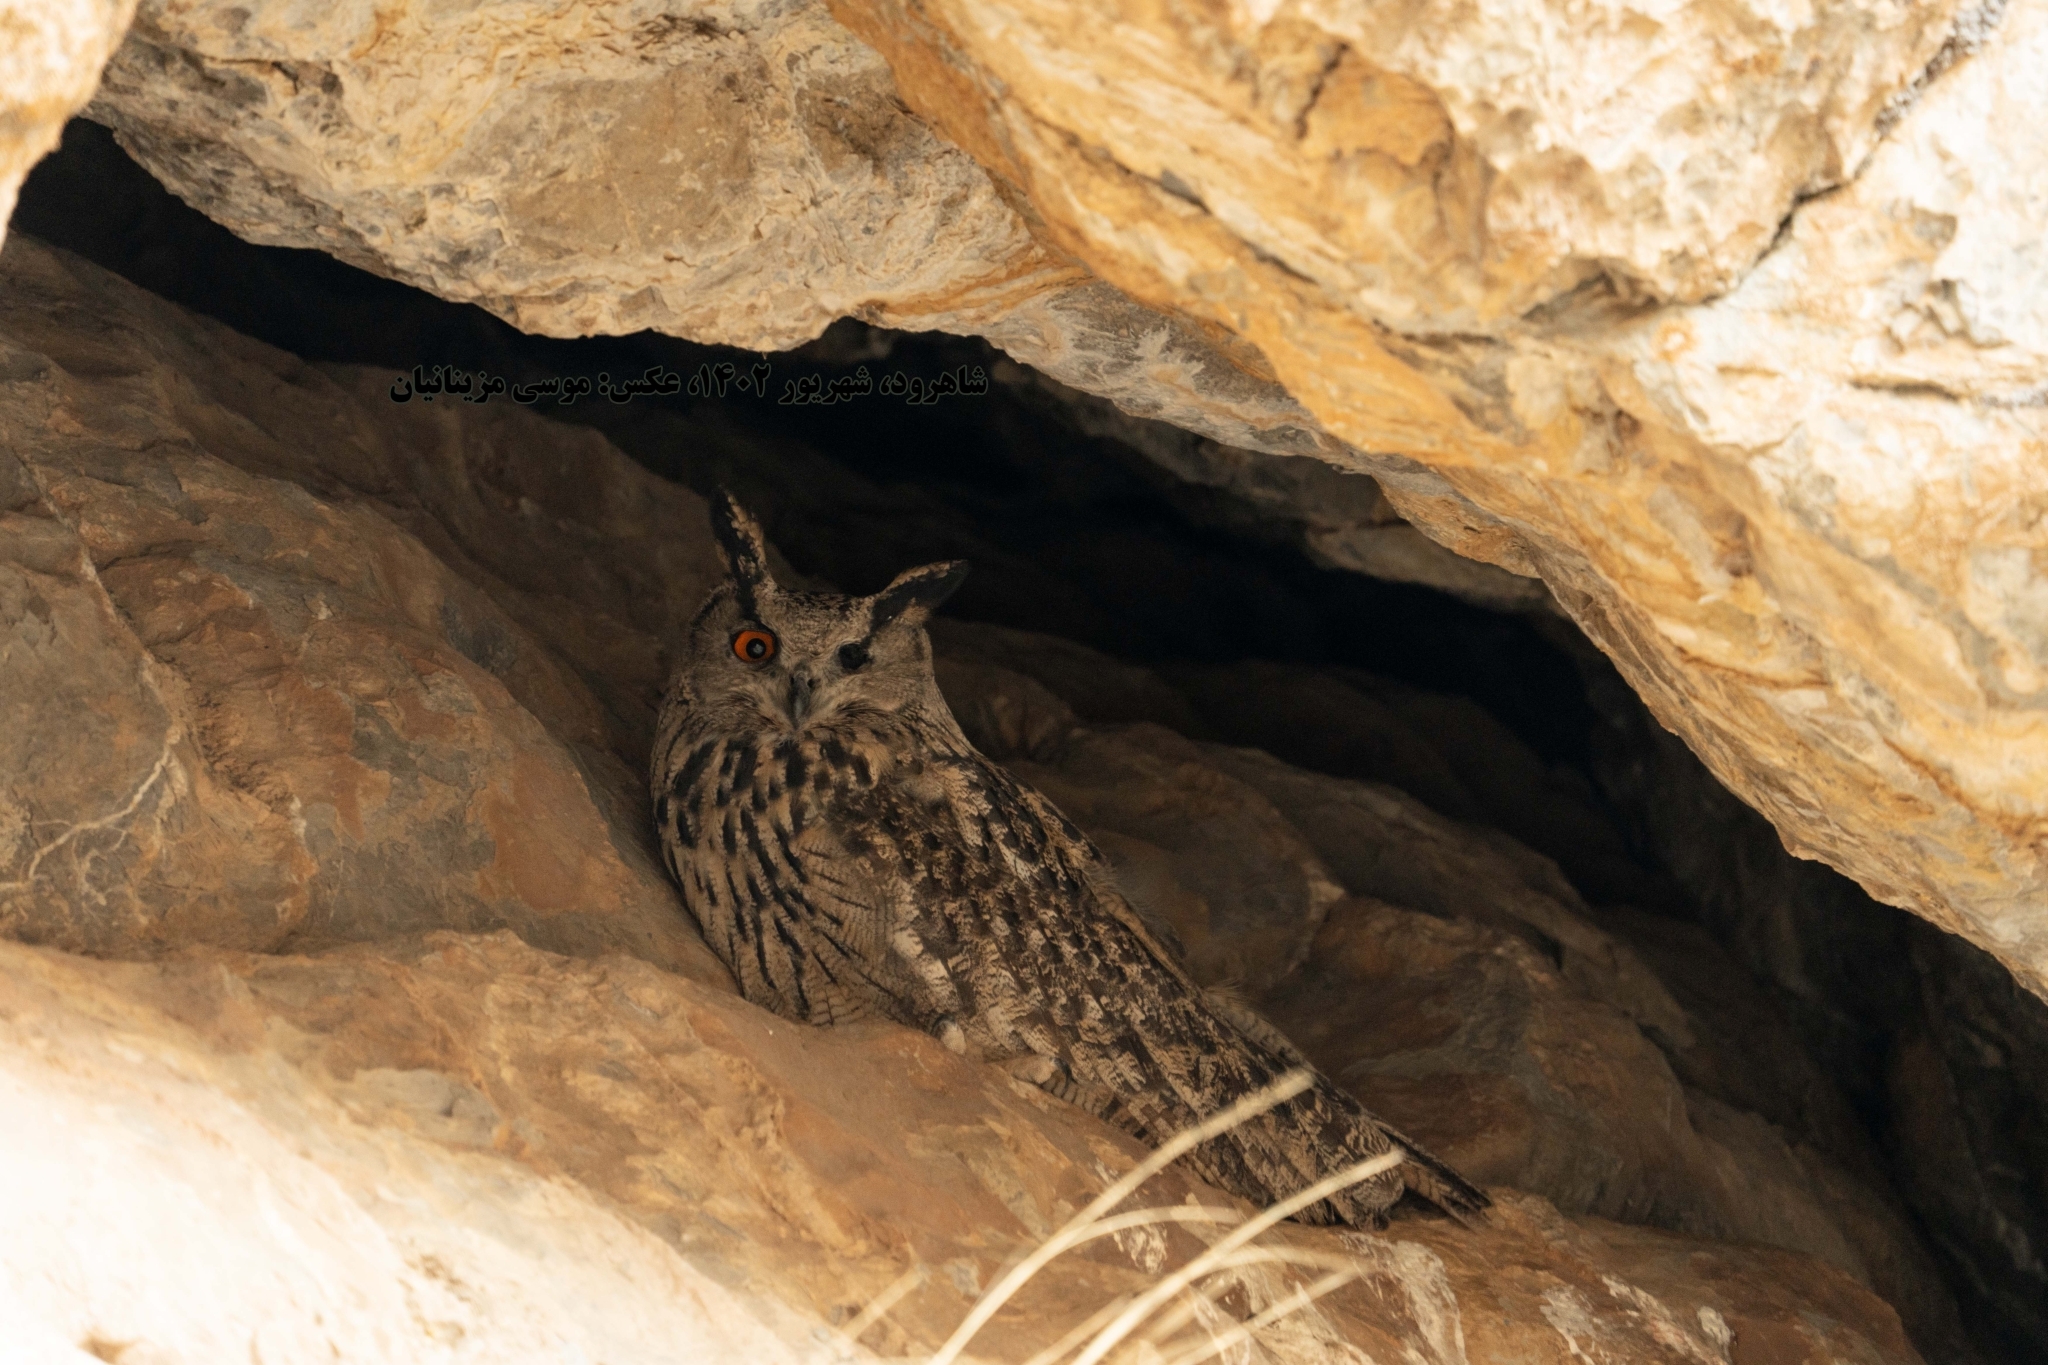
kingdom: Animalia
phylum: Chordata
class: Aves
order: Strigiformes
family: Strigidae
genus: Bubo
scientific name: Bubo bubo
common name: Eurasian eagle-owl
